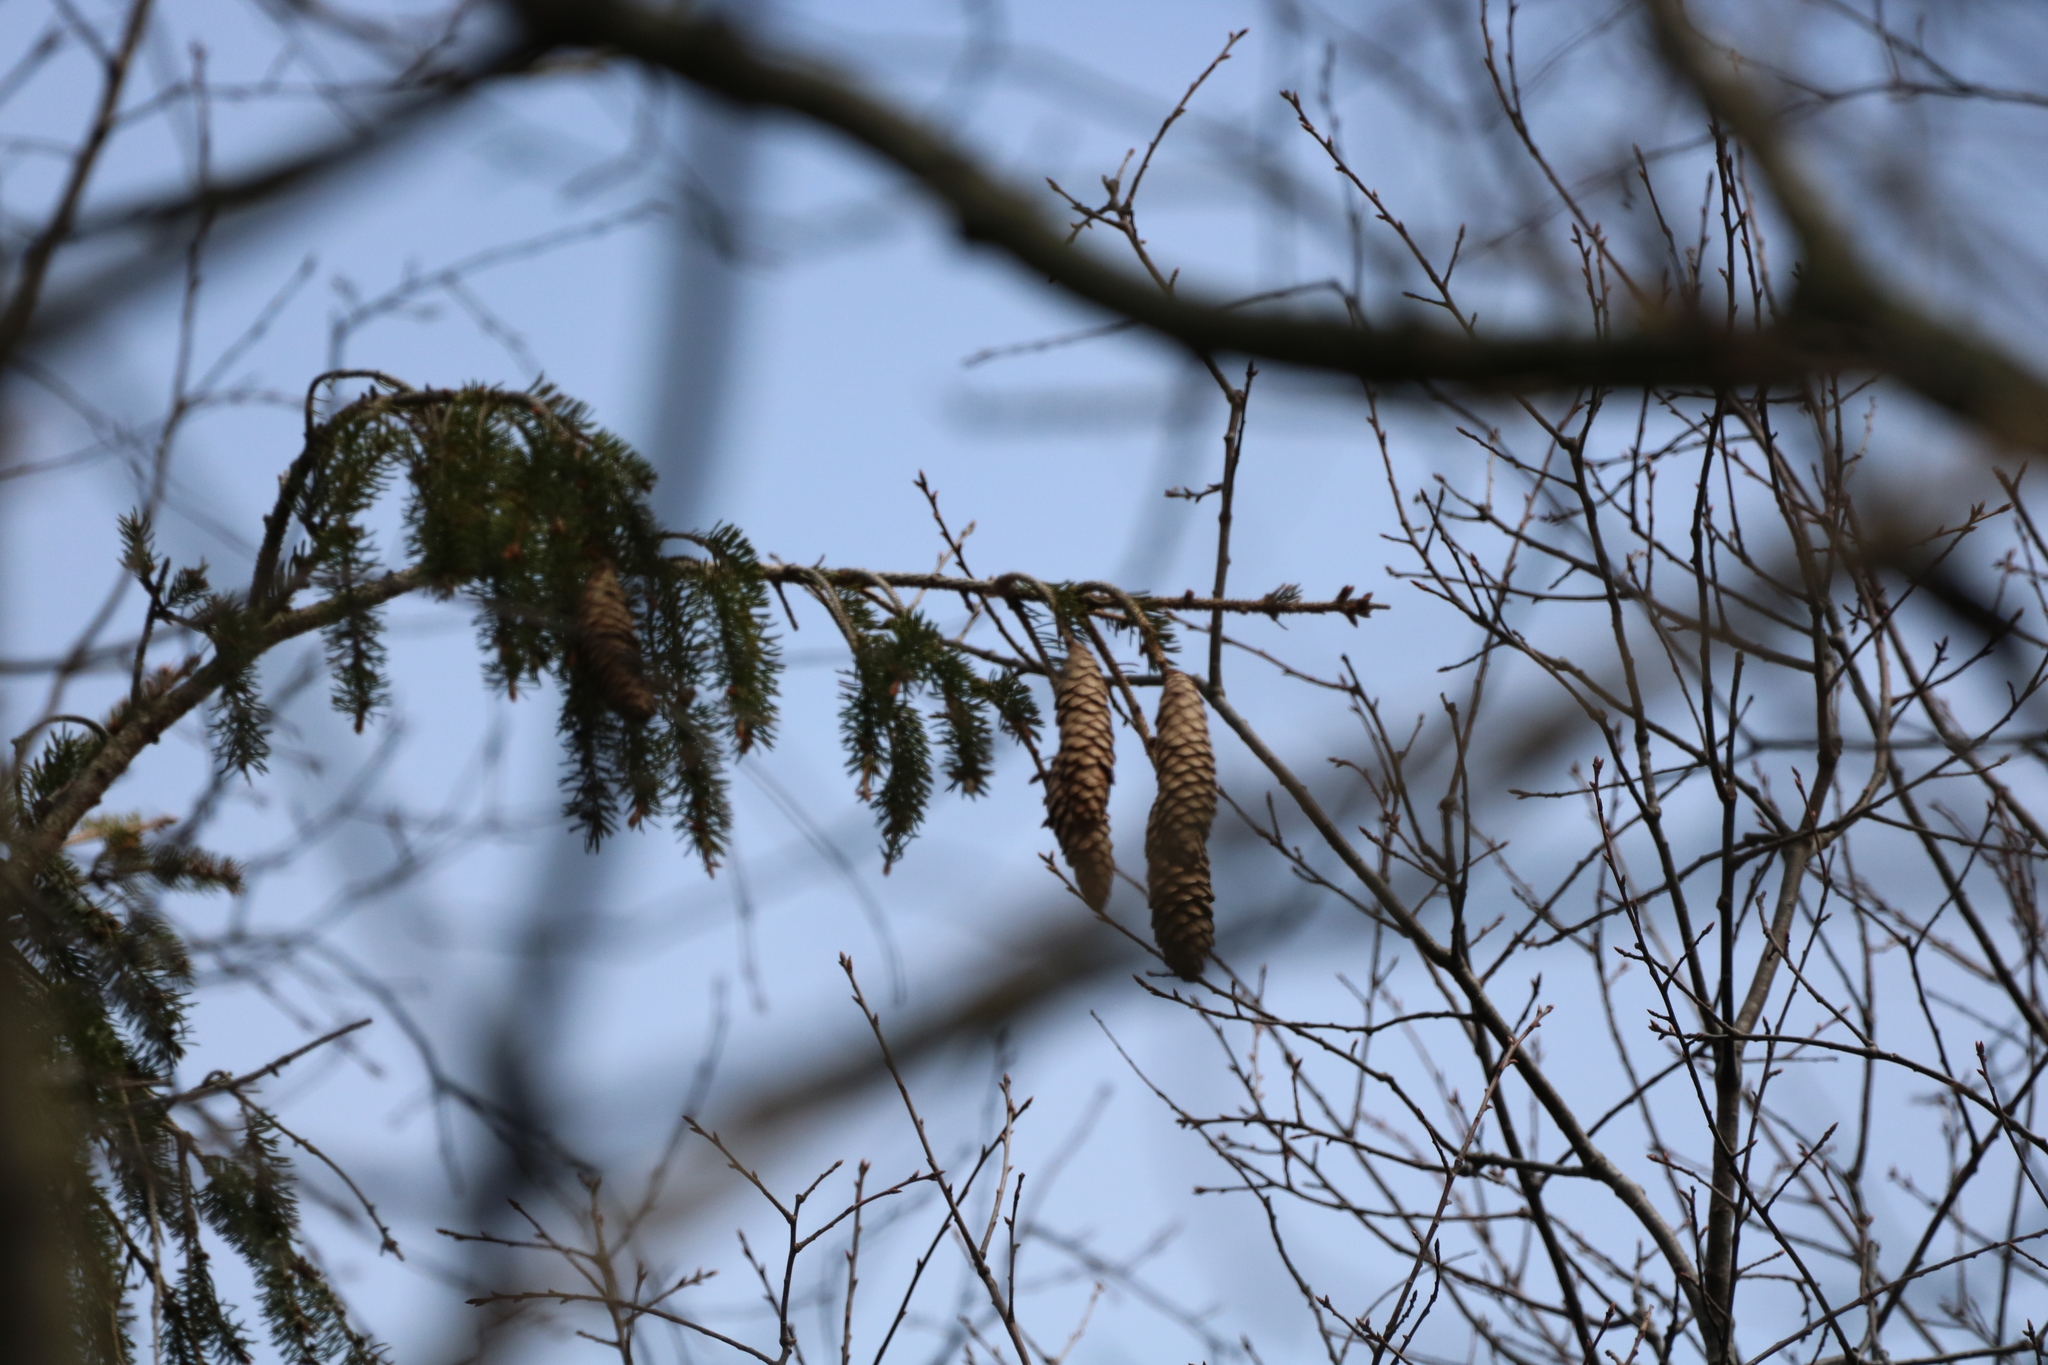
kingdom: Plantae
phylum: Tracheophyta
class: Pinopsida
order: Pinales
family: Pinaceae
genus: Picea
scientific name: Picea abies
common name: Norway spruce
